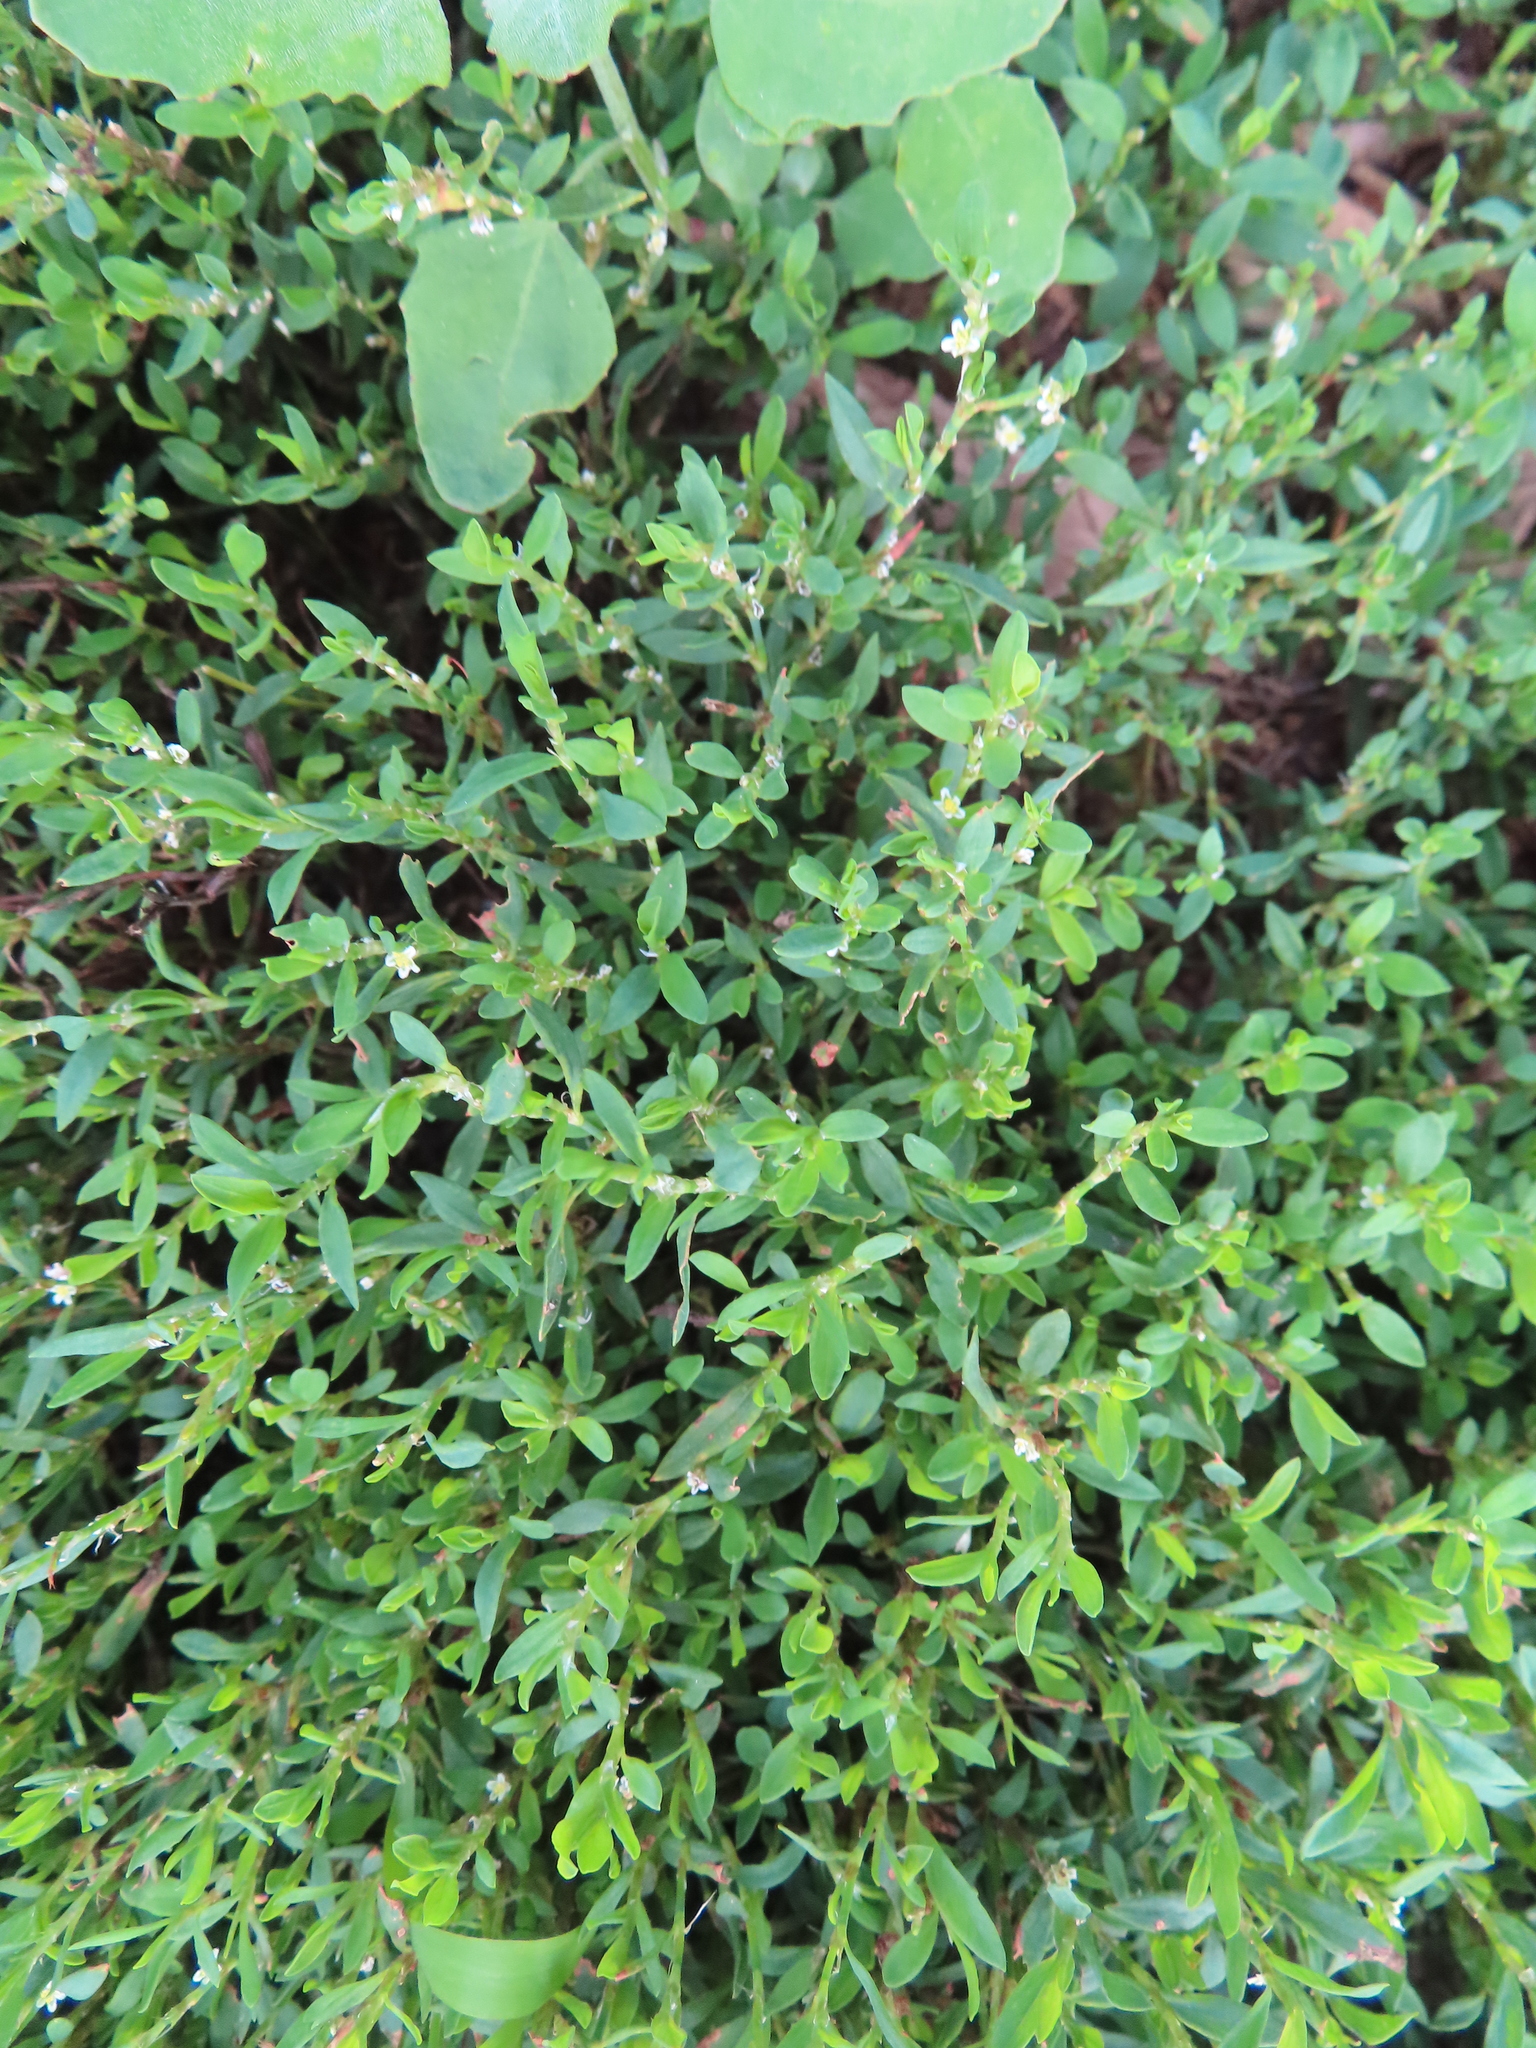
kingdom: Plantae
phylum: Tracheophyta
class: Magnoliopsida
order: Caryophyllales
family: Polygonaceae
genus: Polygonum
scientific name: Polygonum aviculare
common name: Prostrate knotweed
